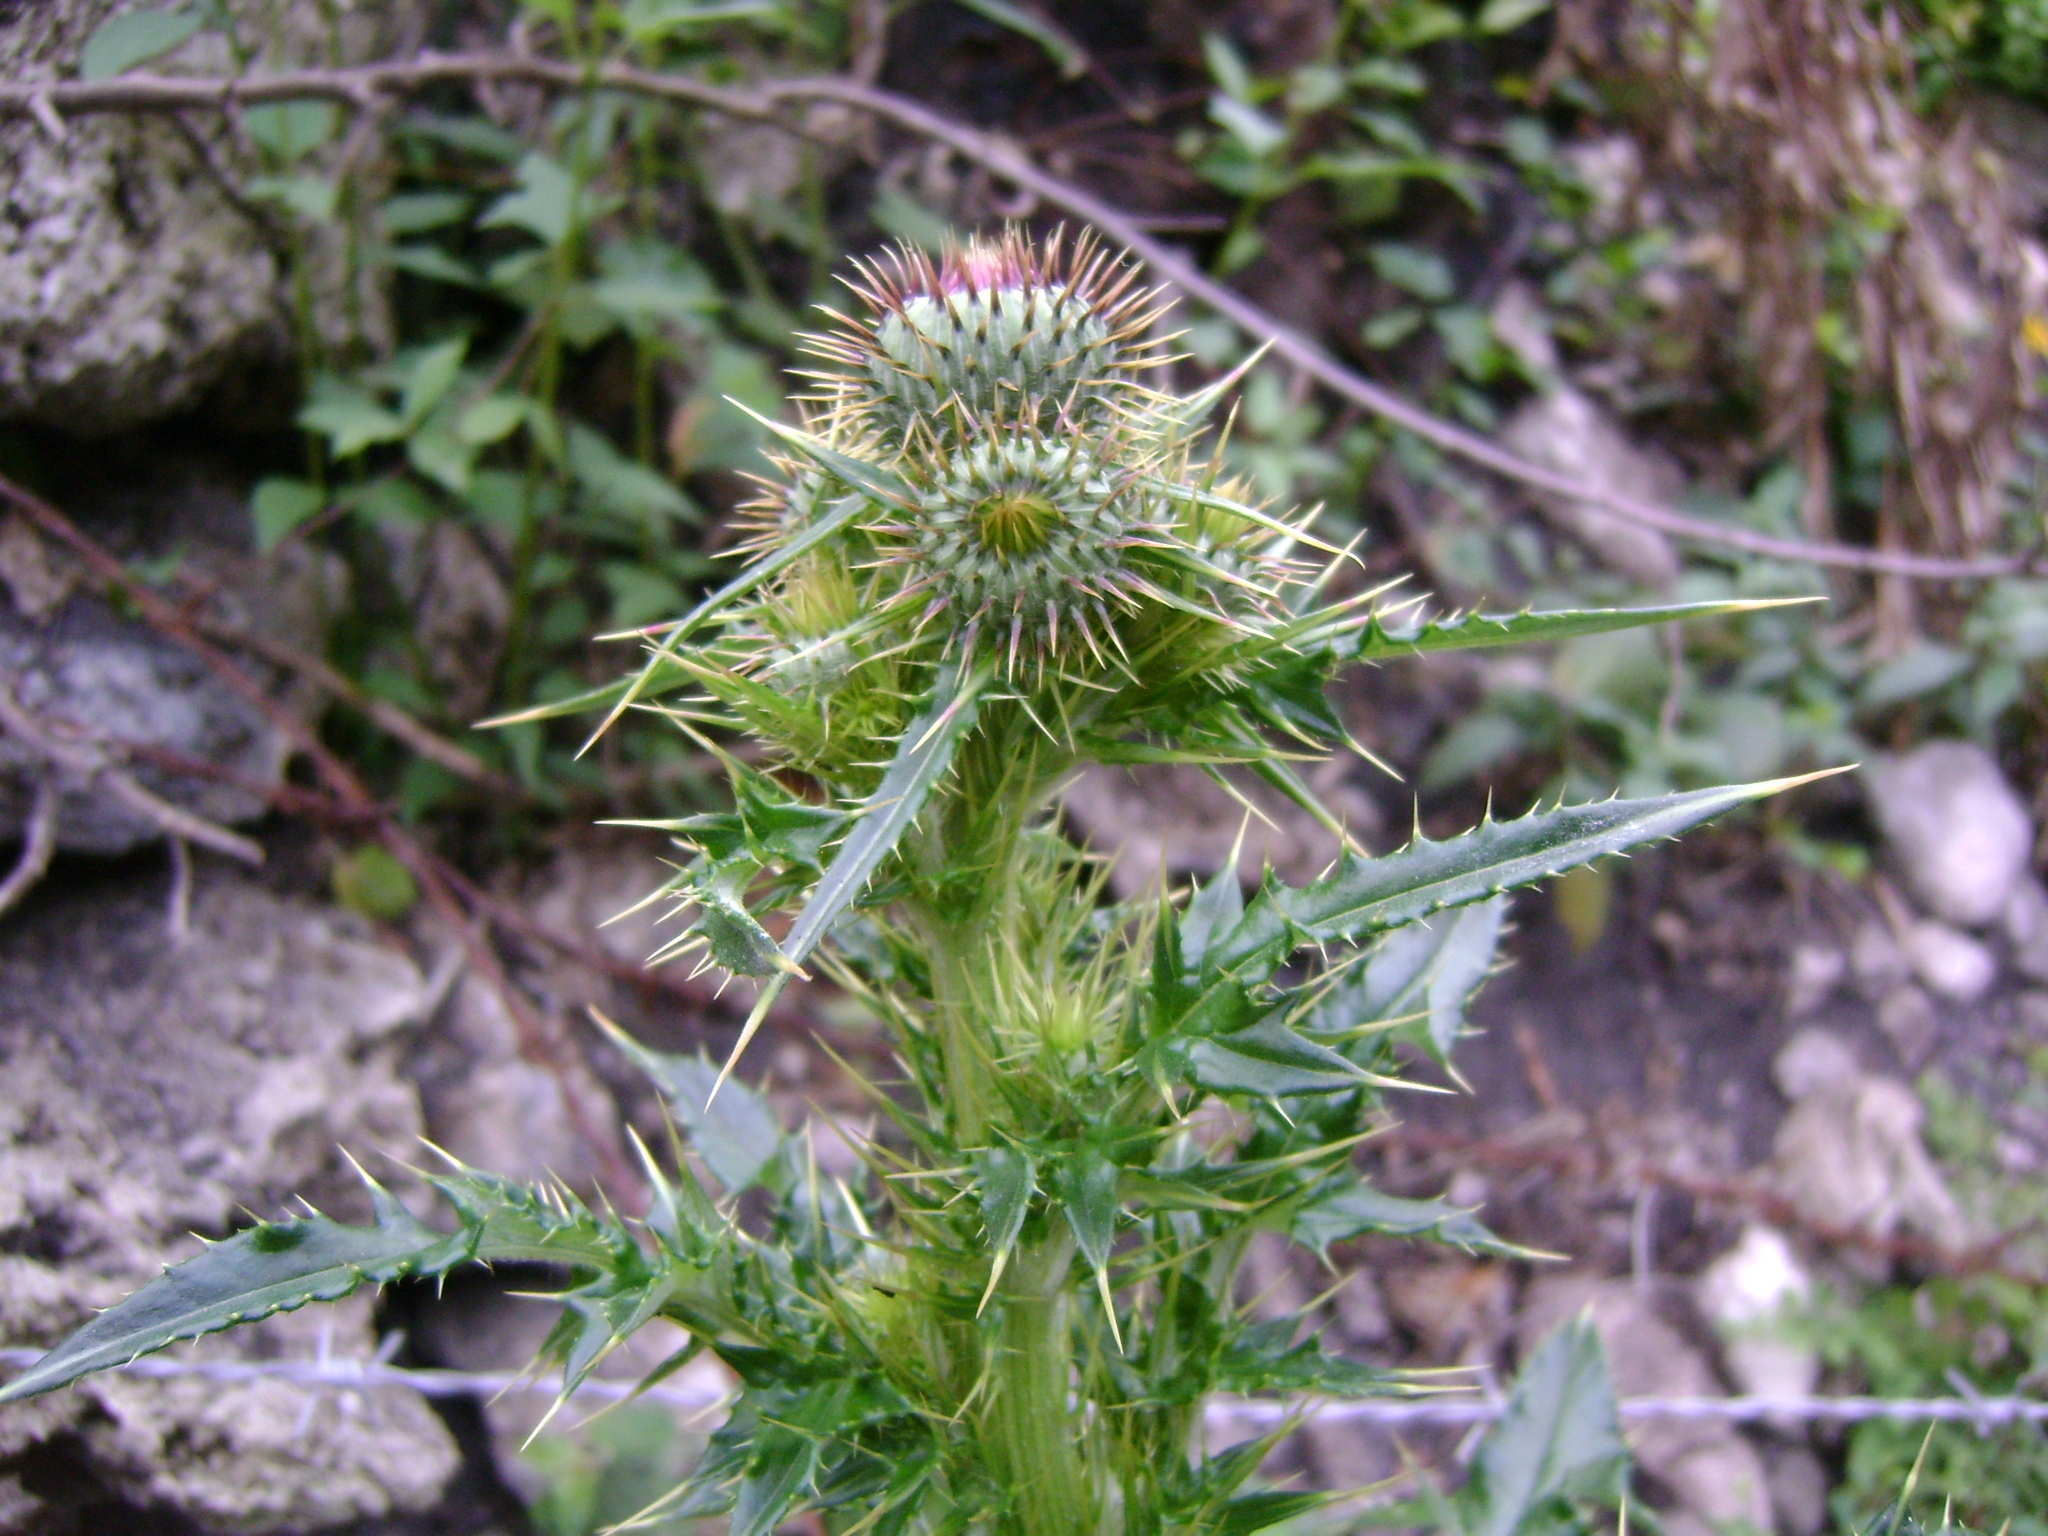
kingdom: Plantae
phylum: Tracheophyta
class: Magnoliopsida
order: Asterales
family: Asteraceae
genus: Cirsium
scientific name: Cirsium mexicanum
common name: Mexican thistle
